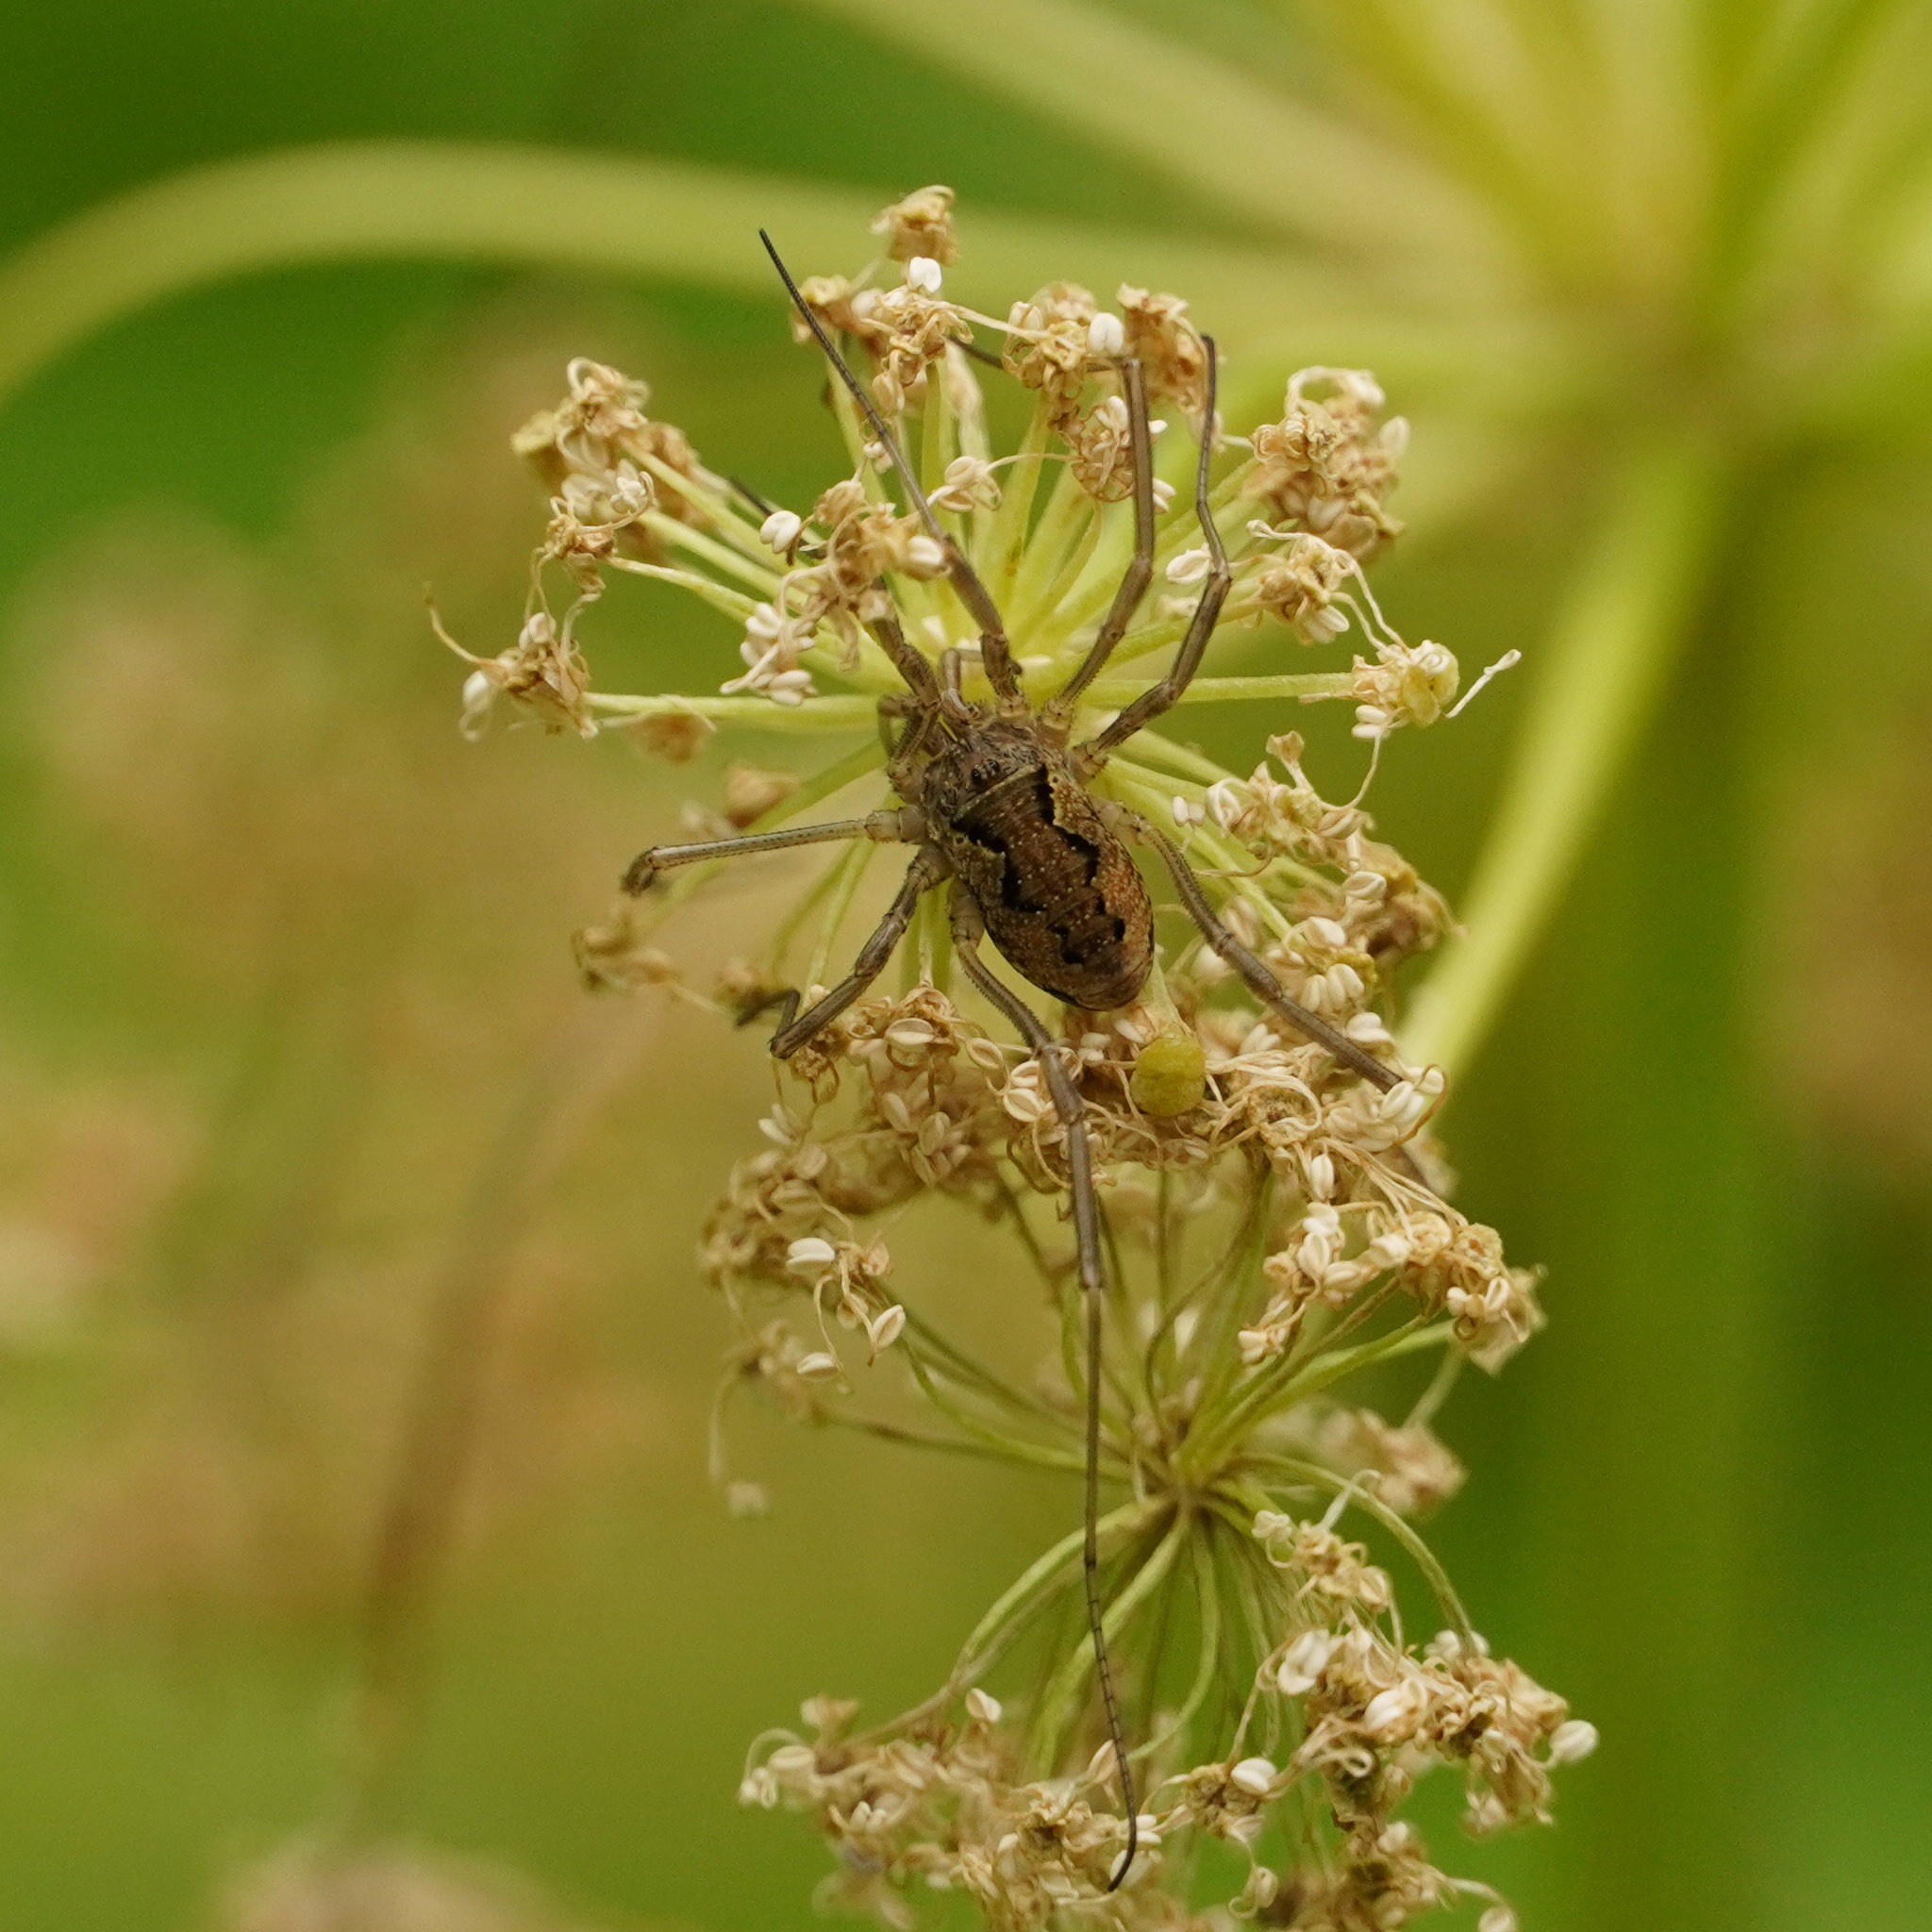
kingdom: Animalia
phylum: Arthropoda
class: Arachnida
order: Opiliones
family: Phalangiidae
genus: Mitopus
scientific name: Mitopus morio
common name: Saddleback harvestman
